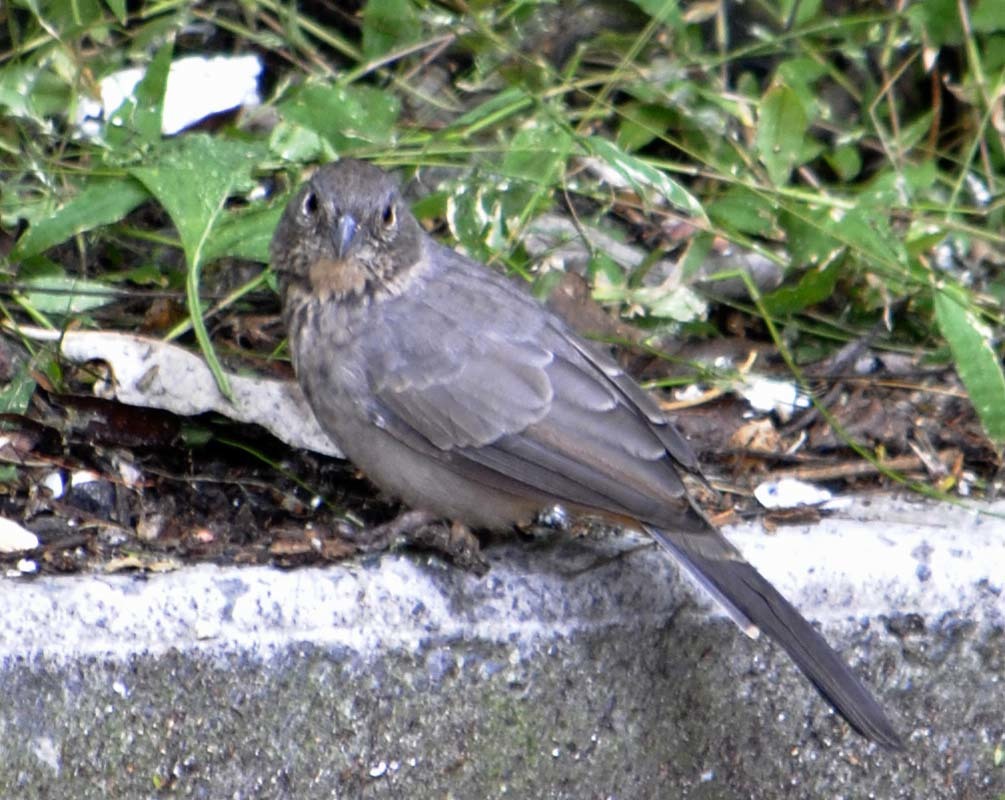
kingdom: Animalia
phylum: Chordata
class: Aves
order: Passeriformes
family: Passerellidae
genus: Melozone
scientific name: Melozone fusca
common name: Canyon towhee
